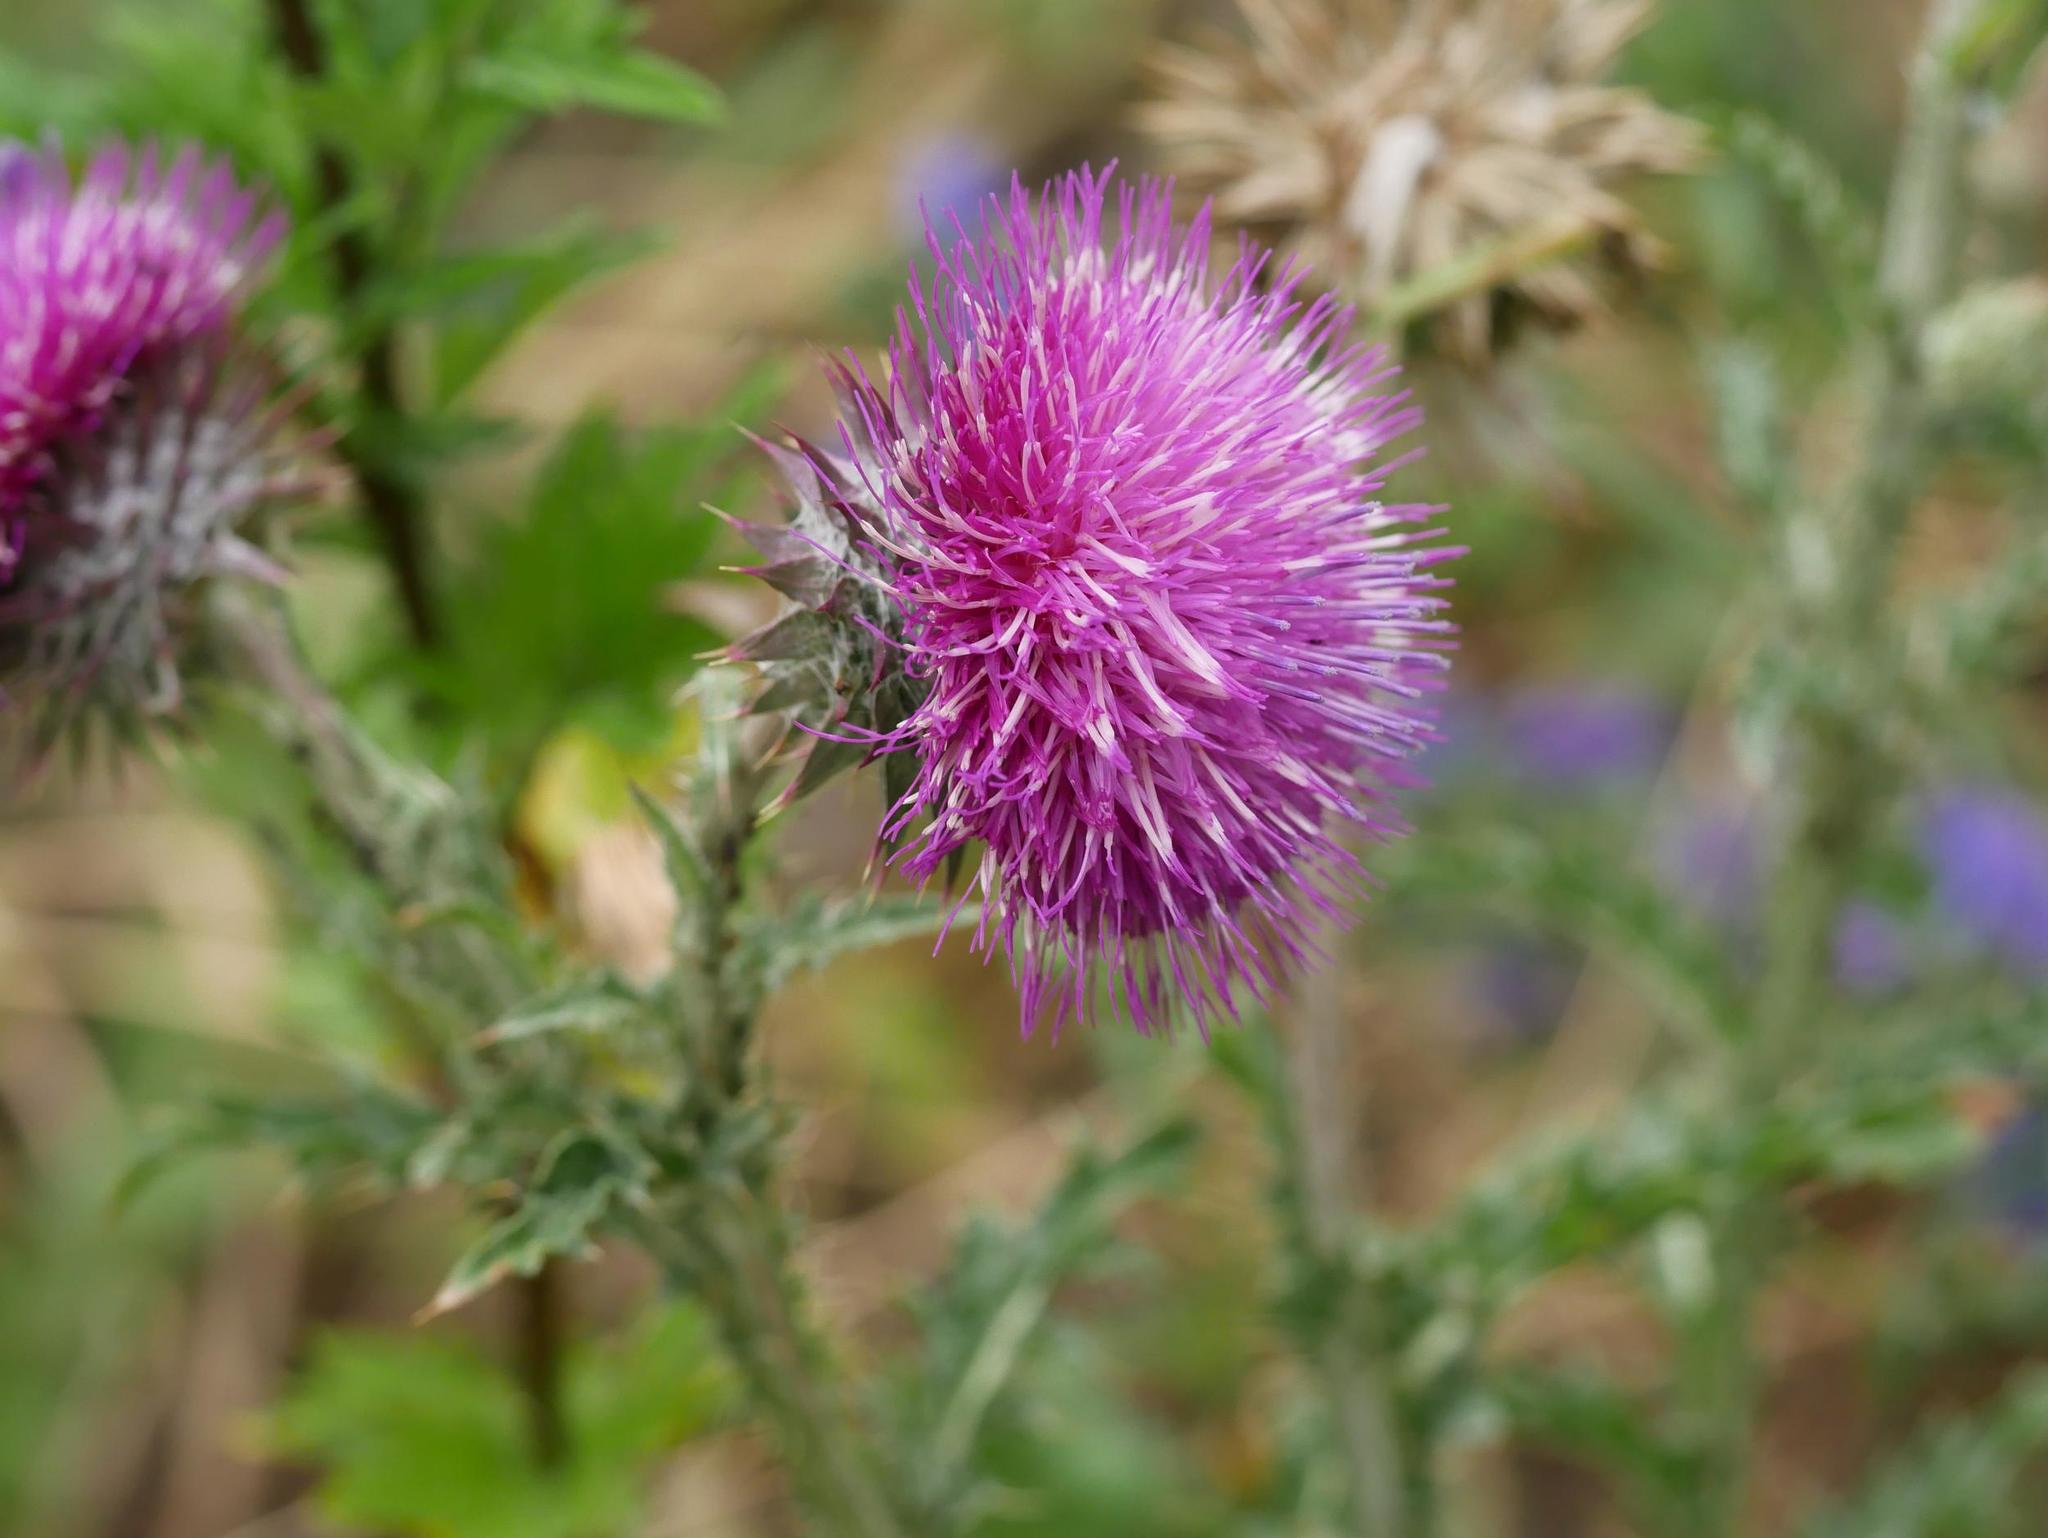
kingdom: Plantae
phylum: Tracheophyta
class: Magnoliopsida
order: Asterales
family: Asteraceae
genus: Carduus
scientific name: Carduus nutans
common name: Musk thistle
